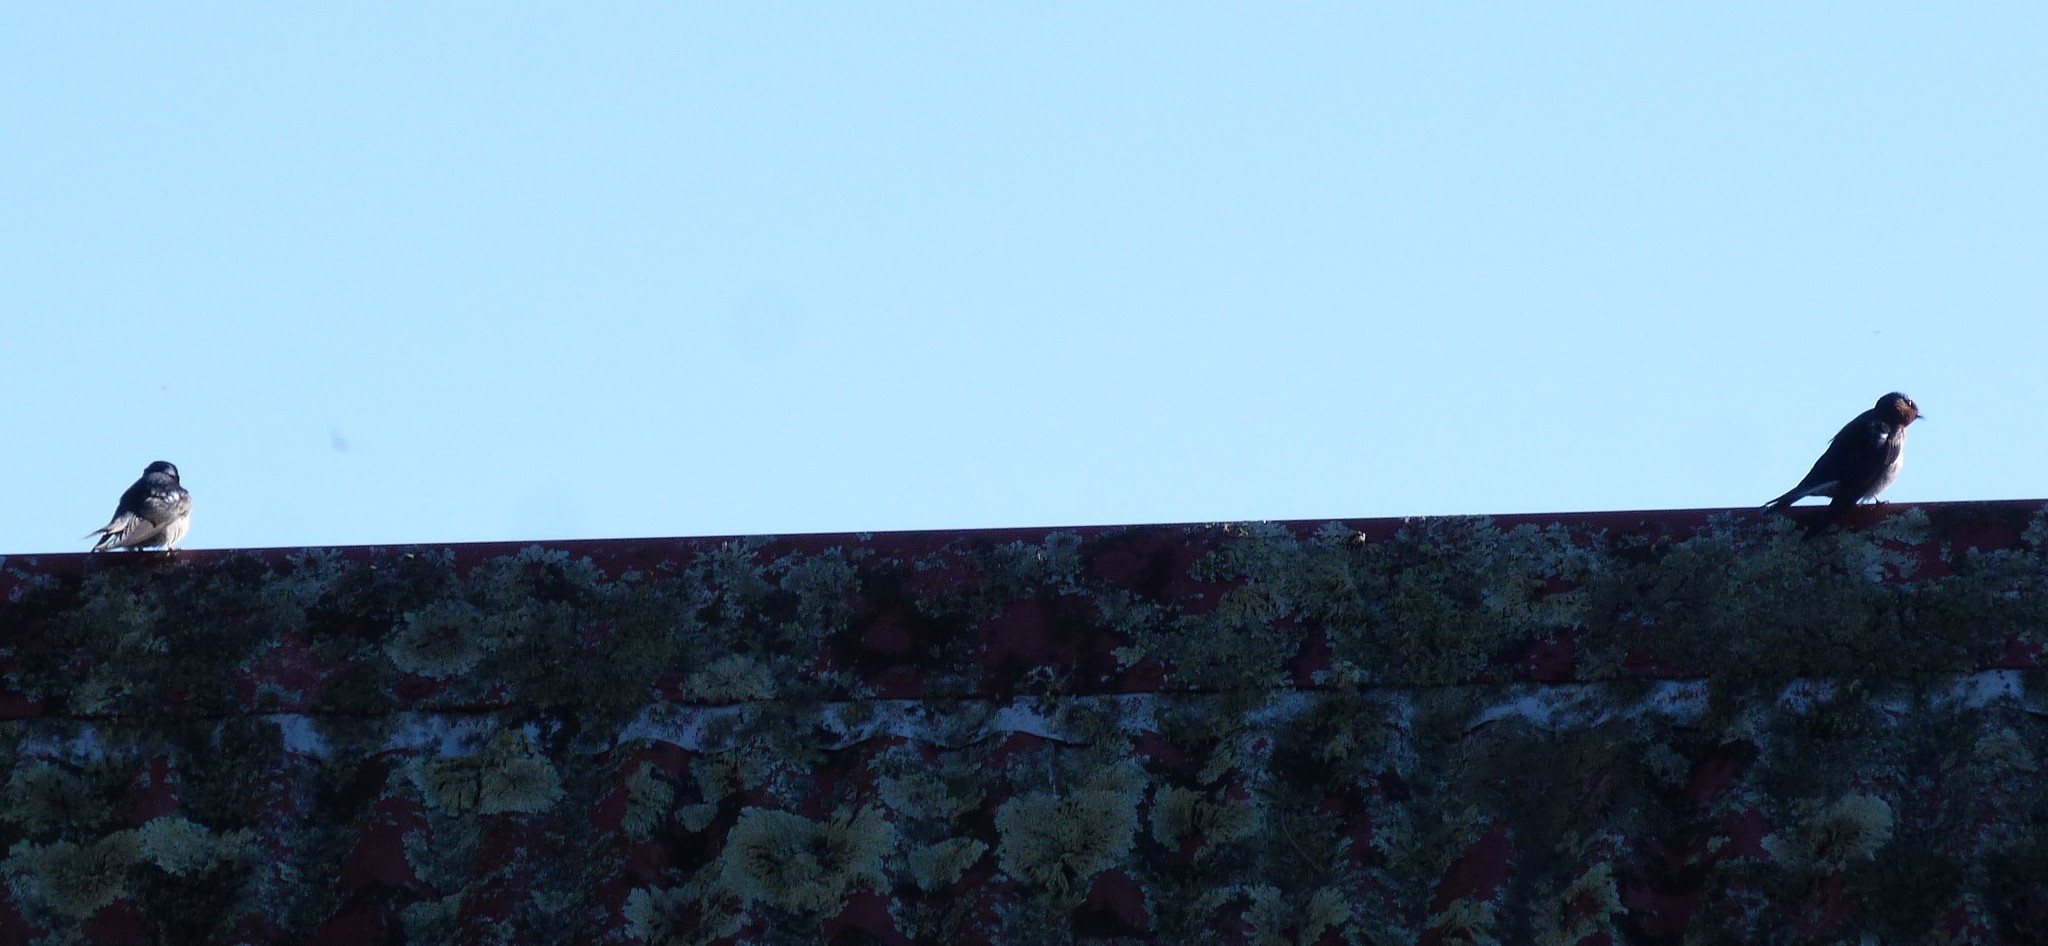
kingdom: Animalia
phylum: Chordata
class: Aves
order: Passeriformes
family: Hirundinidae
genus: Hirundo
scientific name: Hirundo neoxena
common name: Welcome swallow
